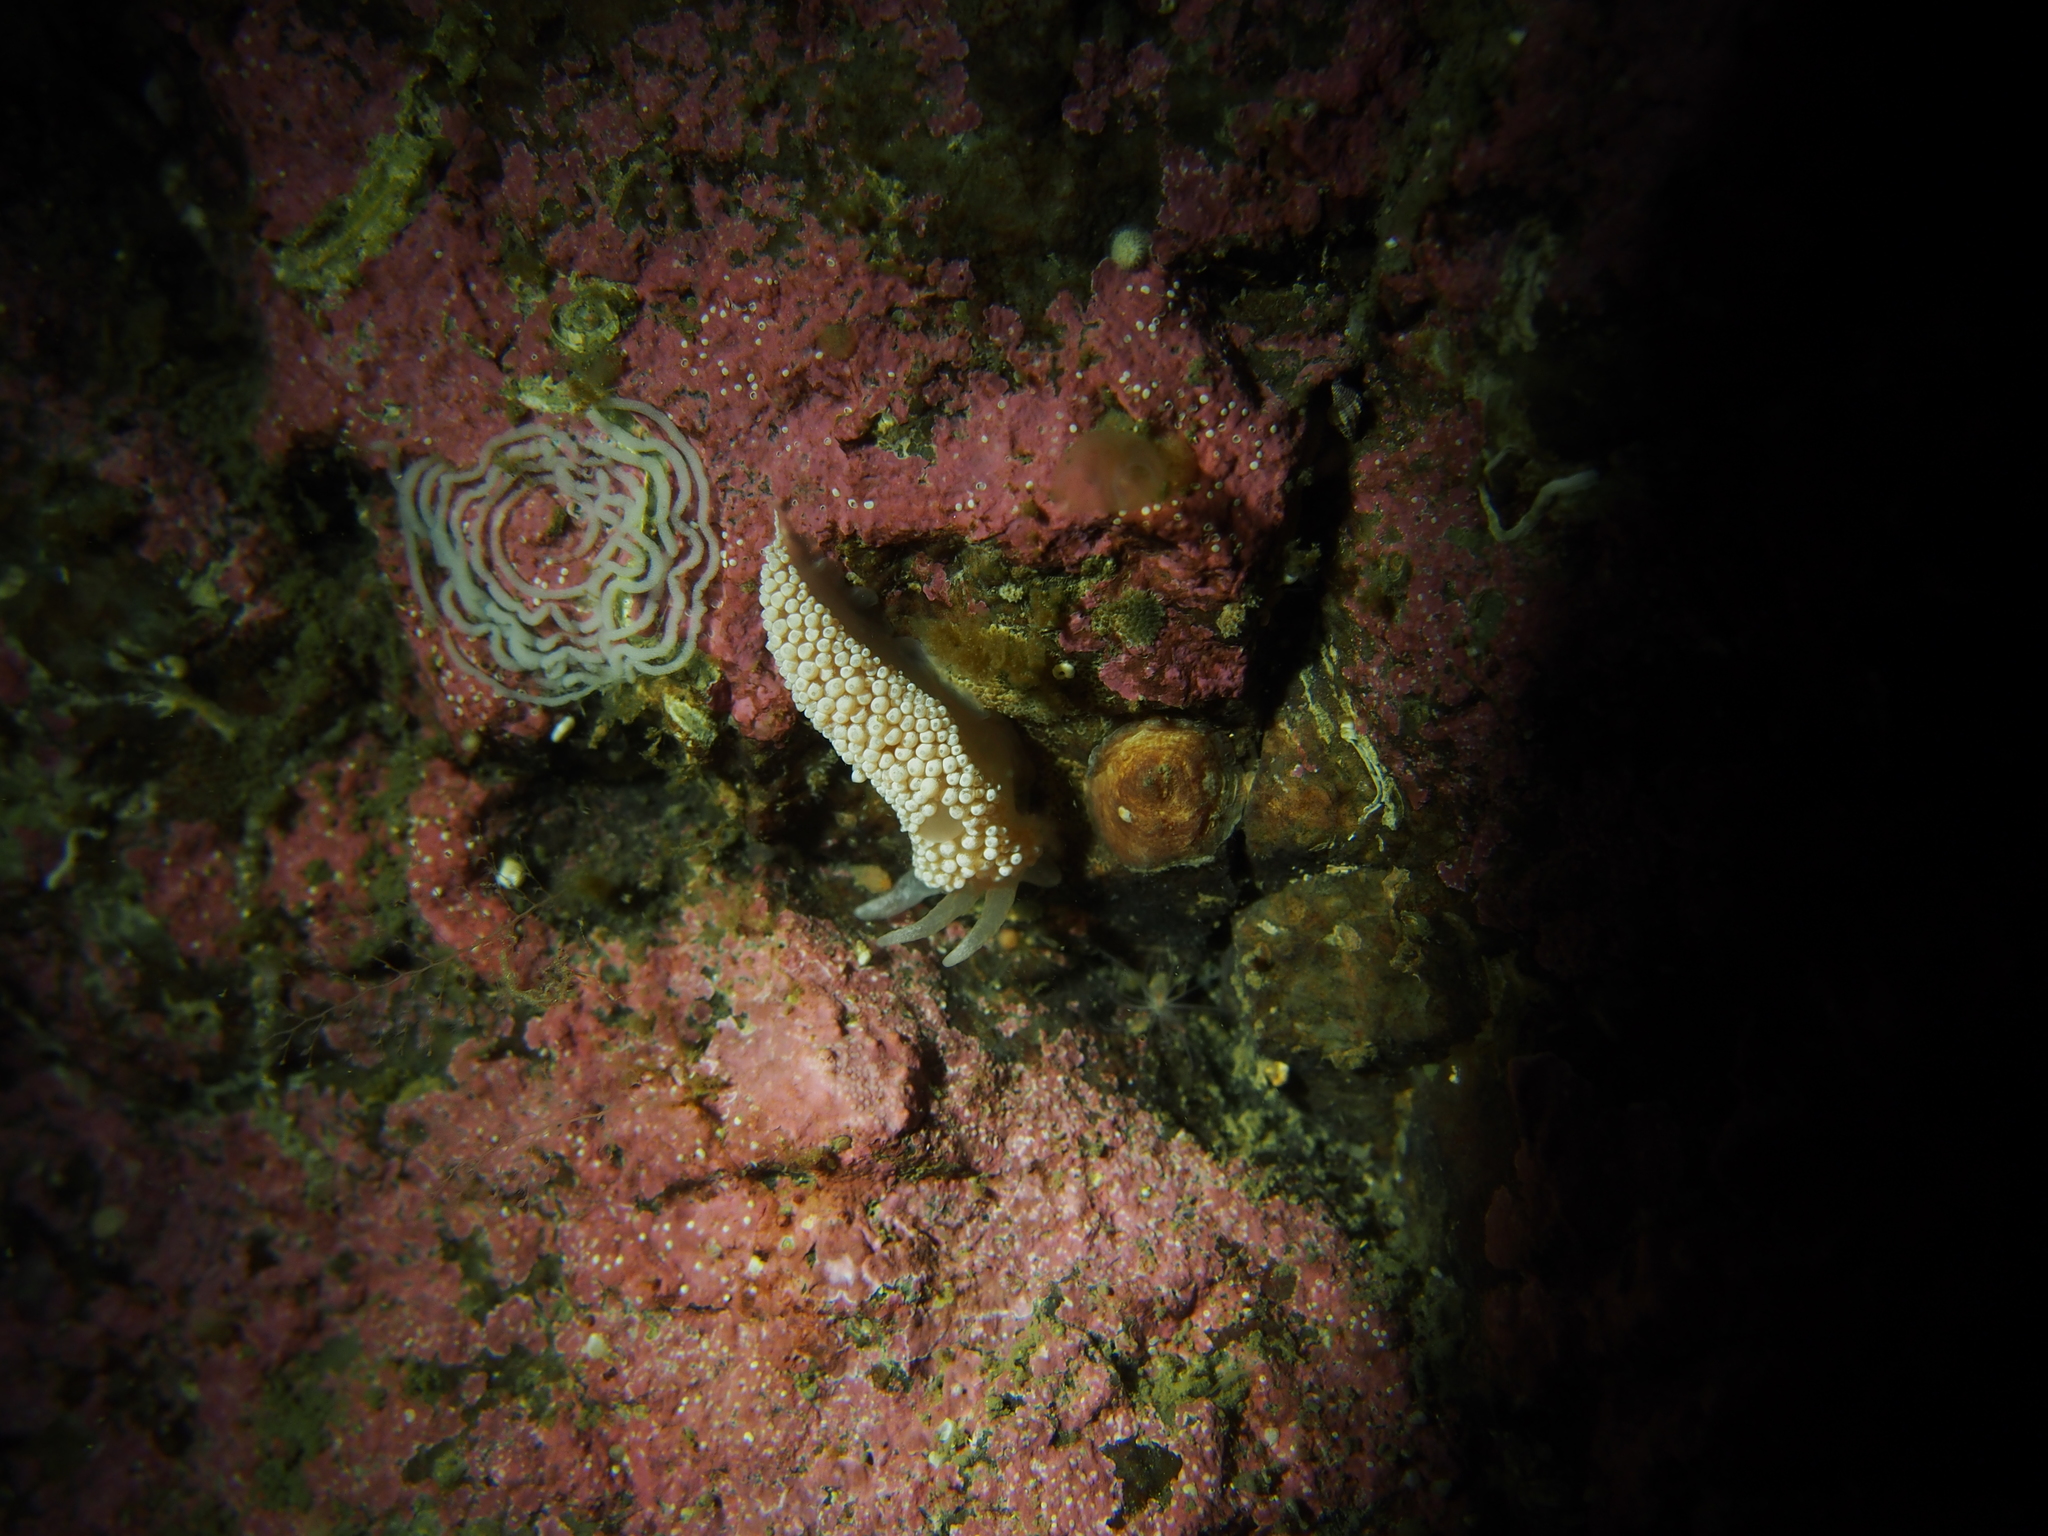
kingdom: Animalia
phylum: Mollusca
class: Gastropoda
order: Nudibranchia
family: Coryphellidae
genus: Coryphella
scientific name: Coryphella verrucosa
